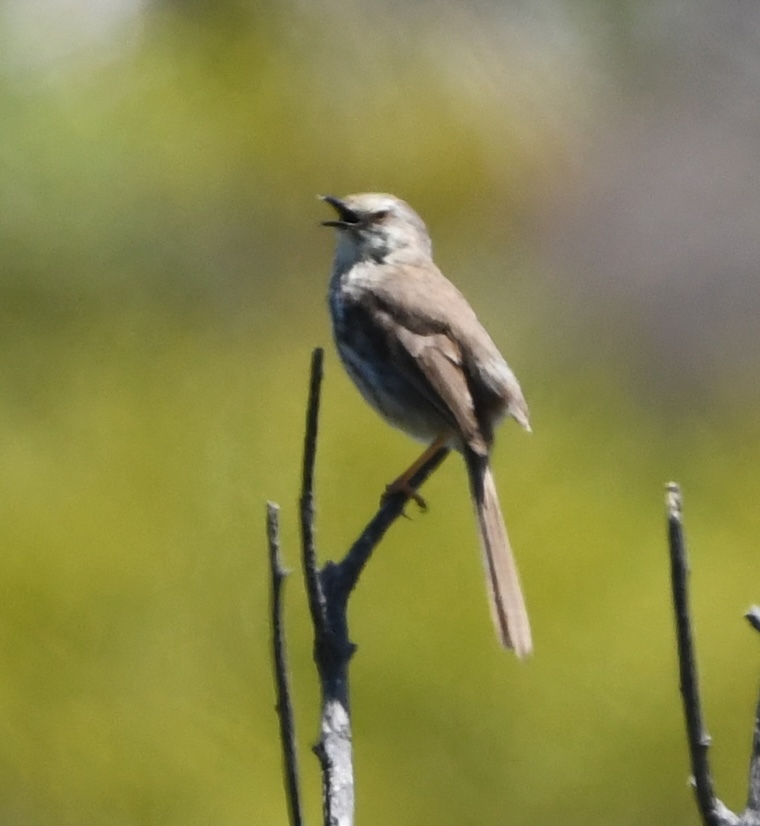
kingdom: Animalia
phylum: Chordata
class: Aves
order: Passeriformes
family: Cisticolidae
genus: Prinia
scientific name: Prinia maculosa
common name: Karoo prinia
